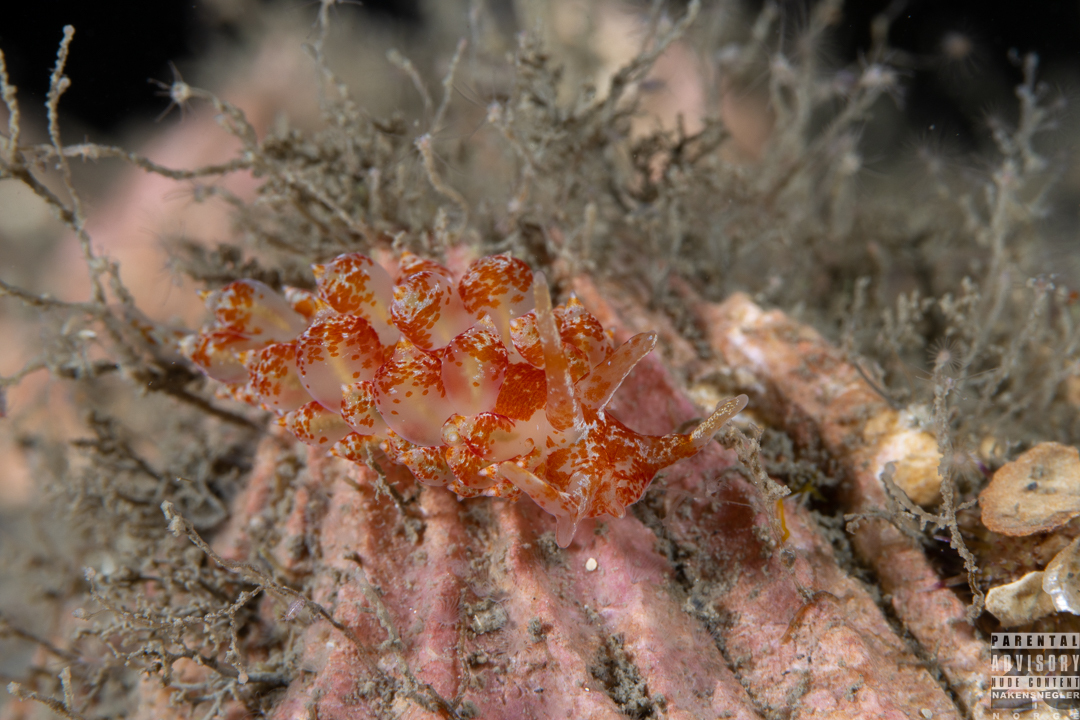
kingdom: Animalia
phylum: Mollusca
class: Gastropoda
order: Nudibranchia
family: Eubranchidae
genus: Amphorina
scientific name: Amphorina pallida
